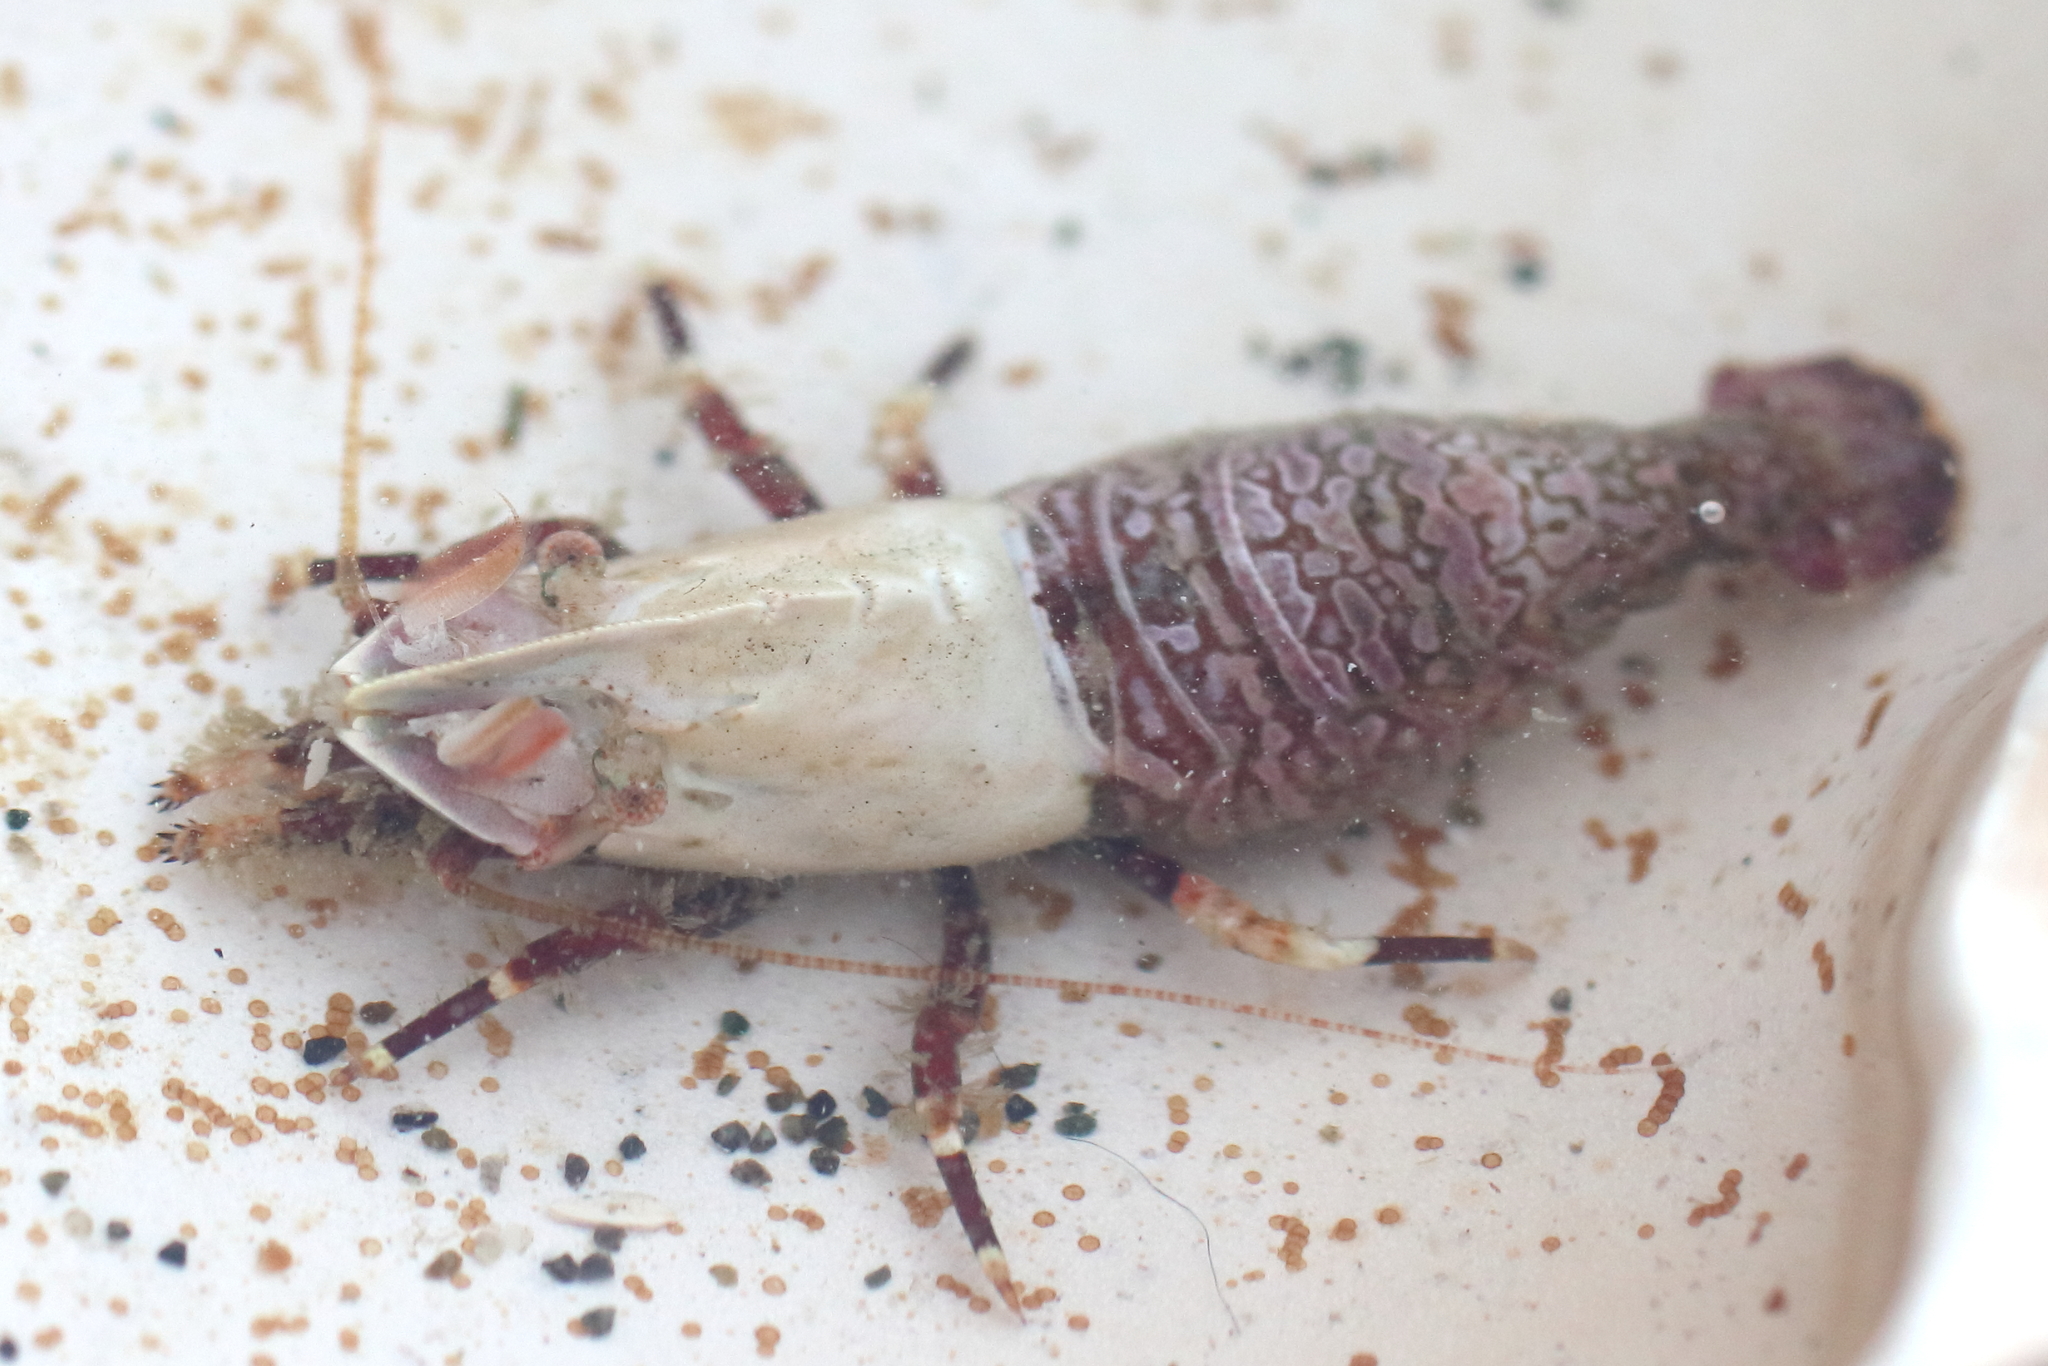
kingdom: Animalia
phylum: Arthropoda
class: Malacostraca
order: Decapoda
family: Thoridae
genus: Spirontocaris
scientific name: Spirontocaris prionota
